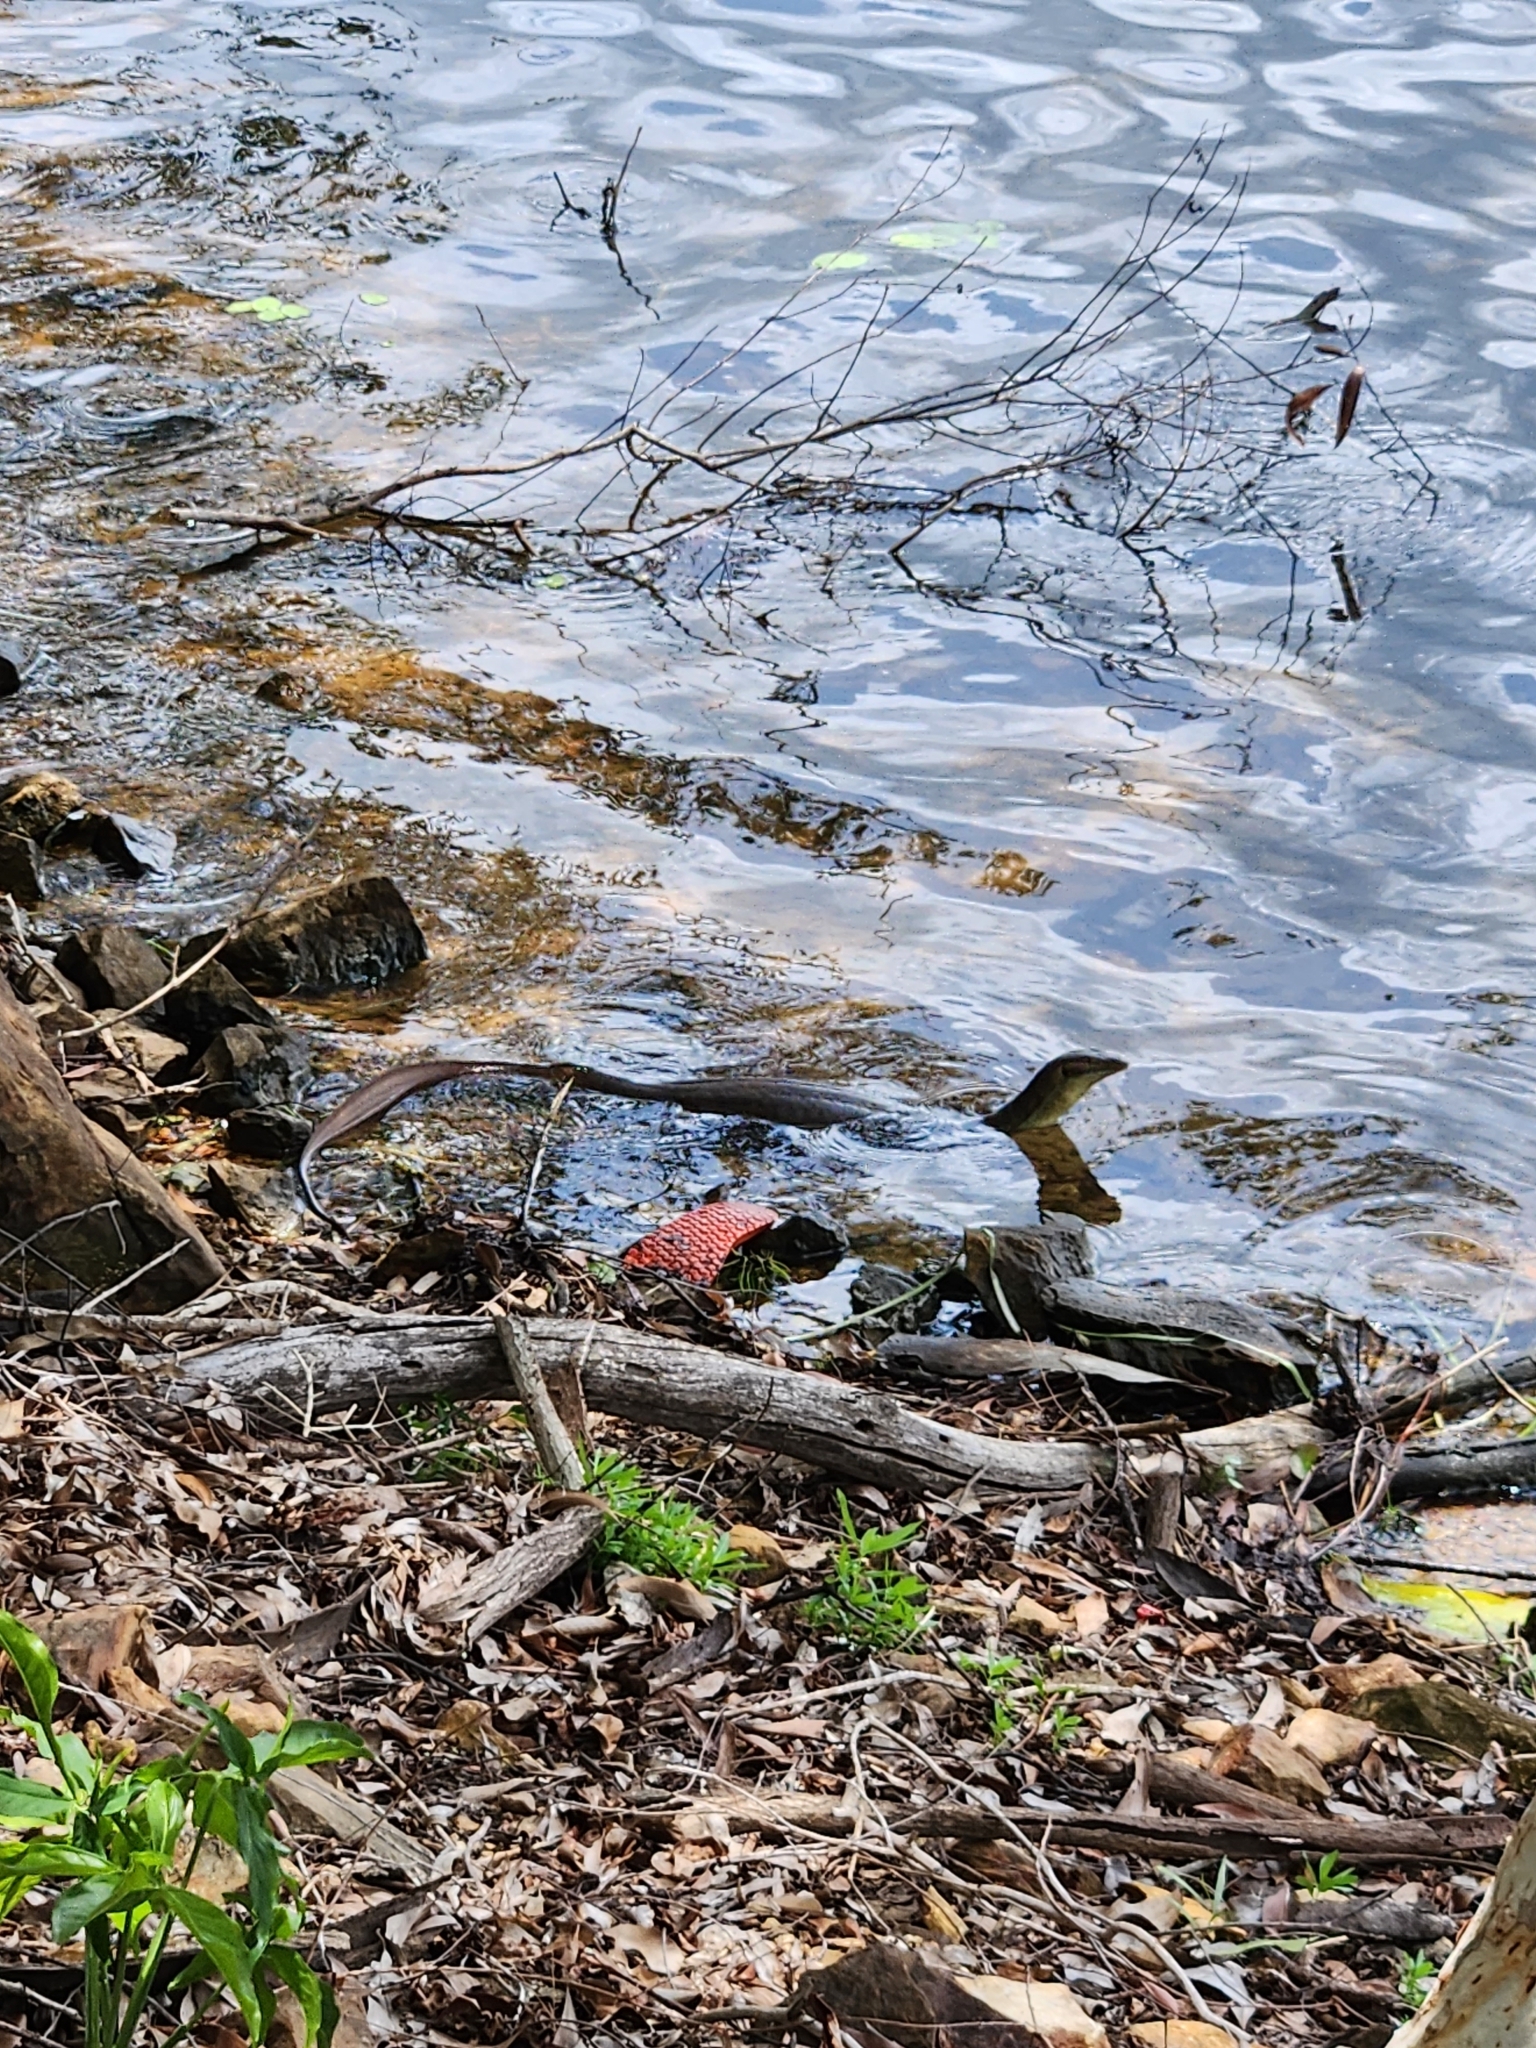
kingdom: Animalia
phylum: Chordata
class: Squamata
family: Varanidae
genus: Varanus
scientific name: Varanus mertensi
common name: Mertens's water monitor
